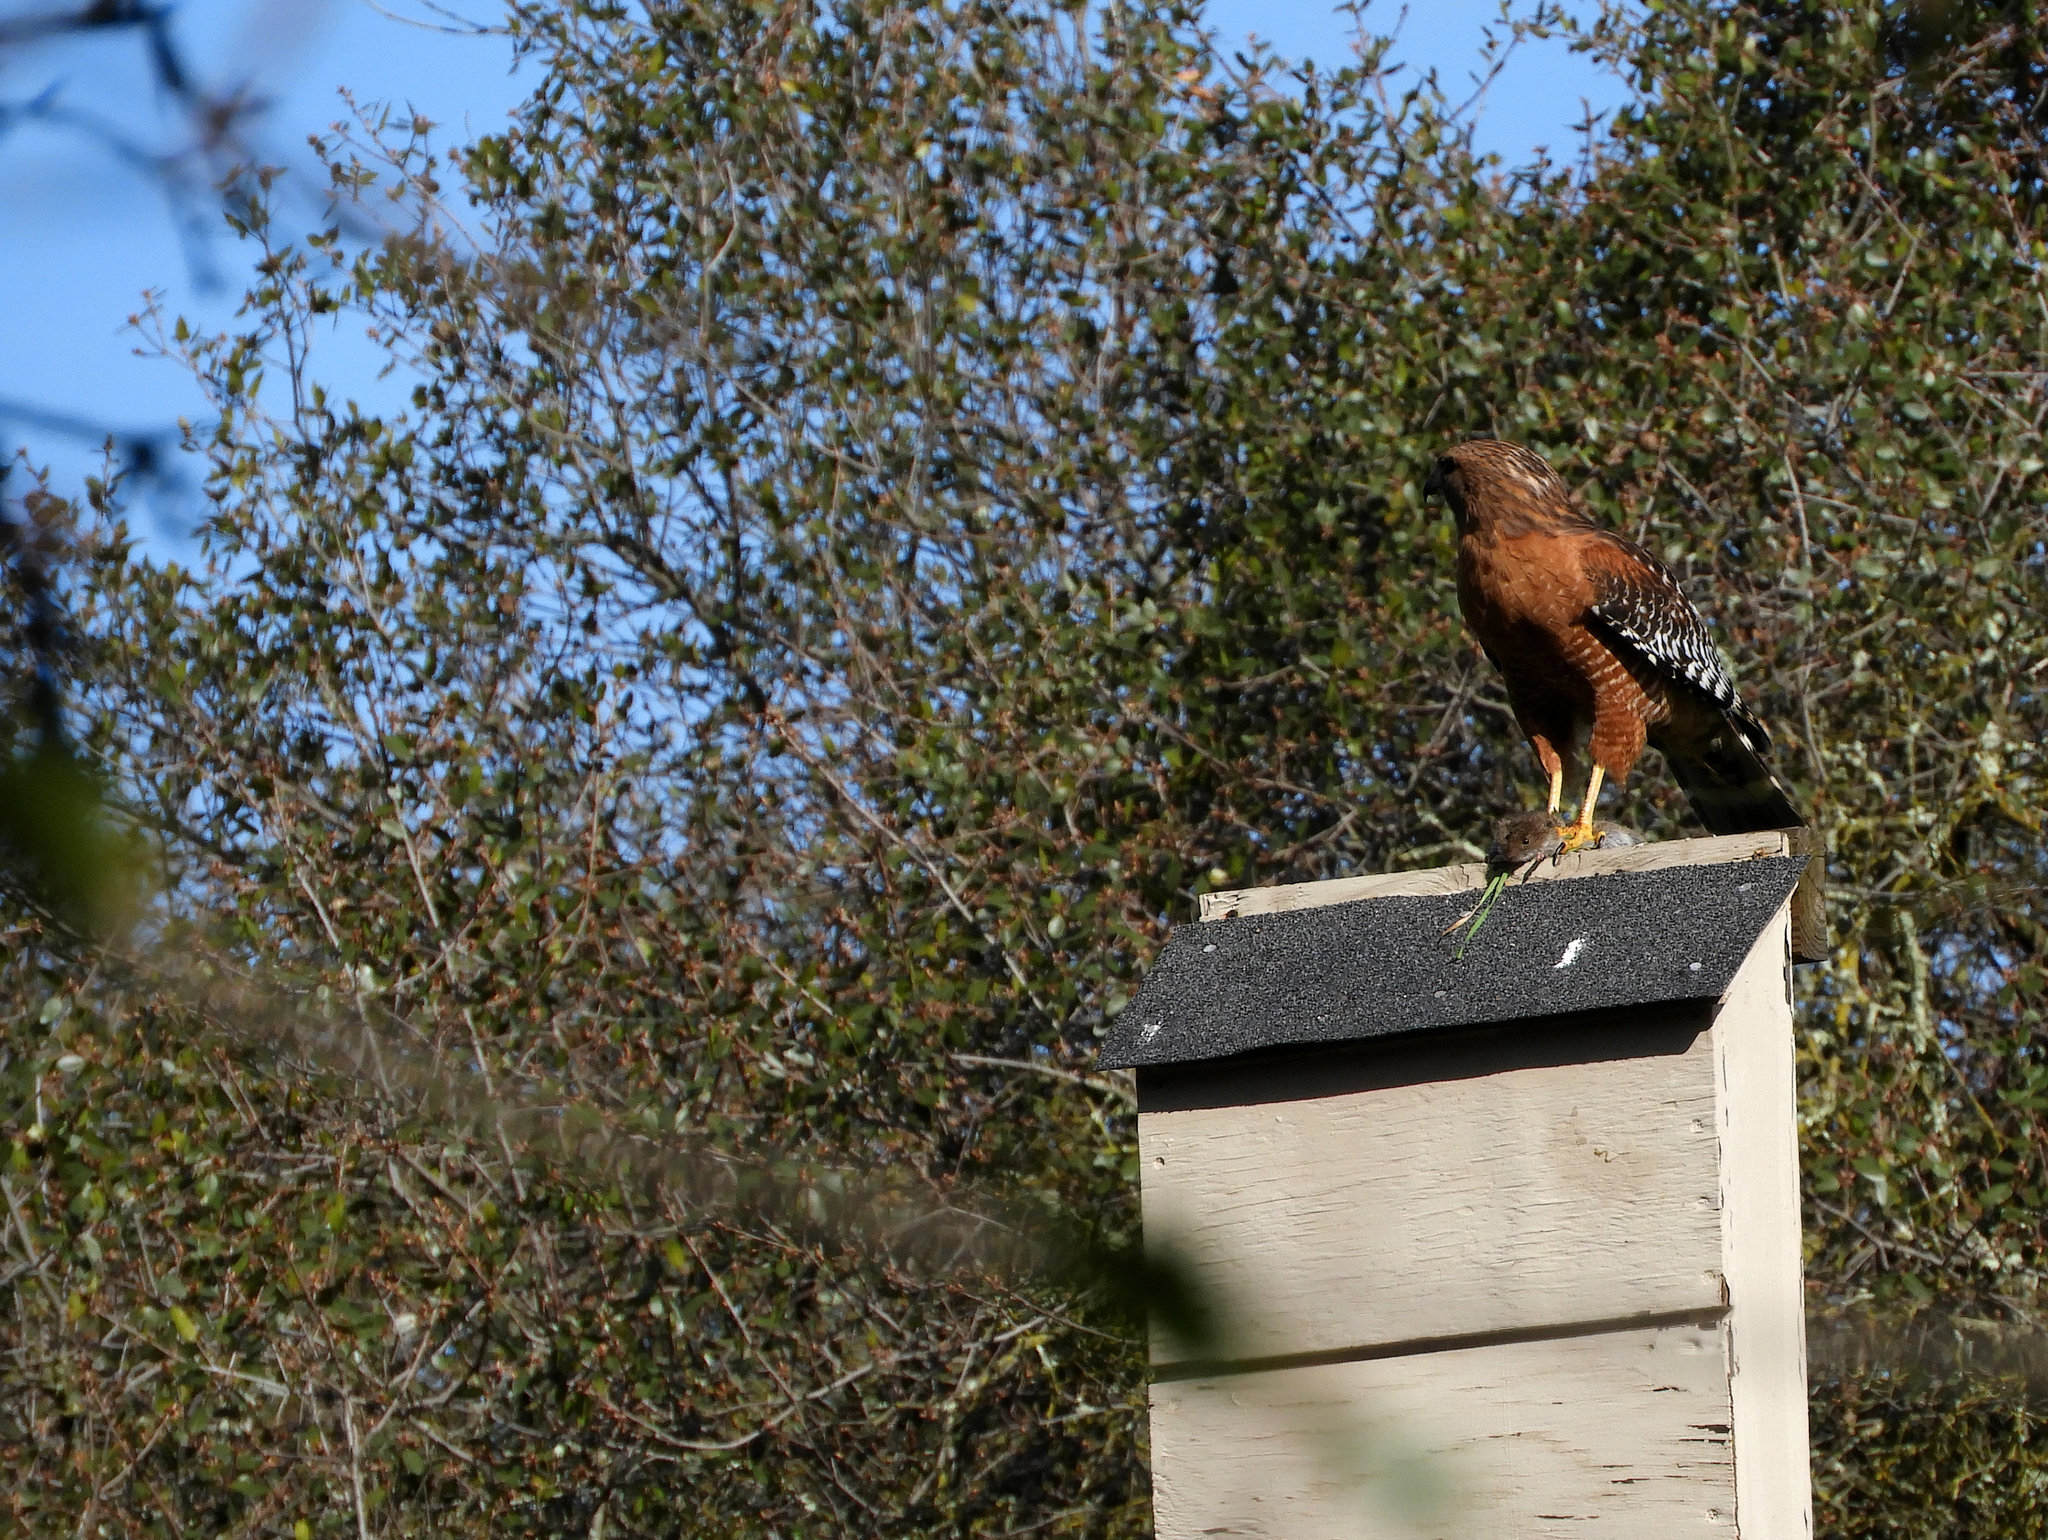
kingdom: Animalia
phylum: Chordata
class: Aves
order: Accipitriformes
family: Accipitridae
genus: Buteo
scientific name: Buteo lineatus
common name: Red-shouldered hawk
